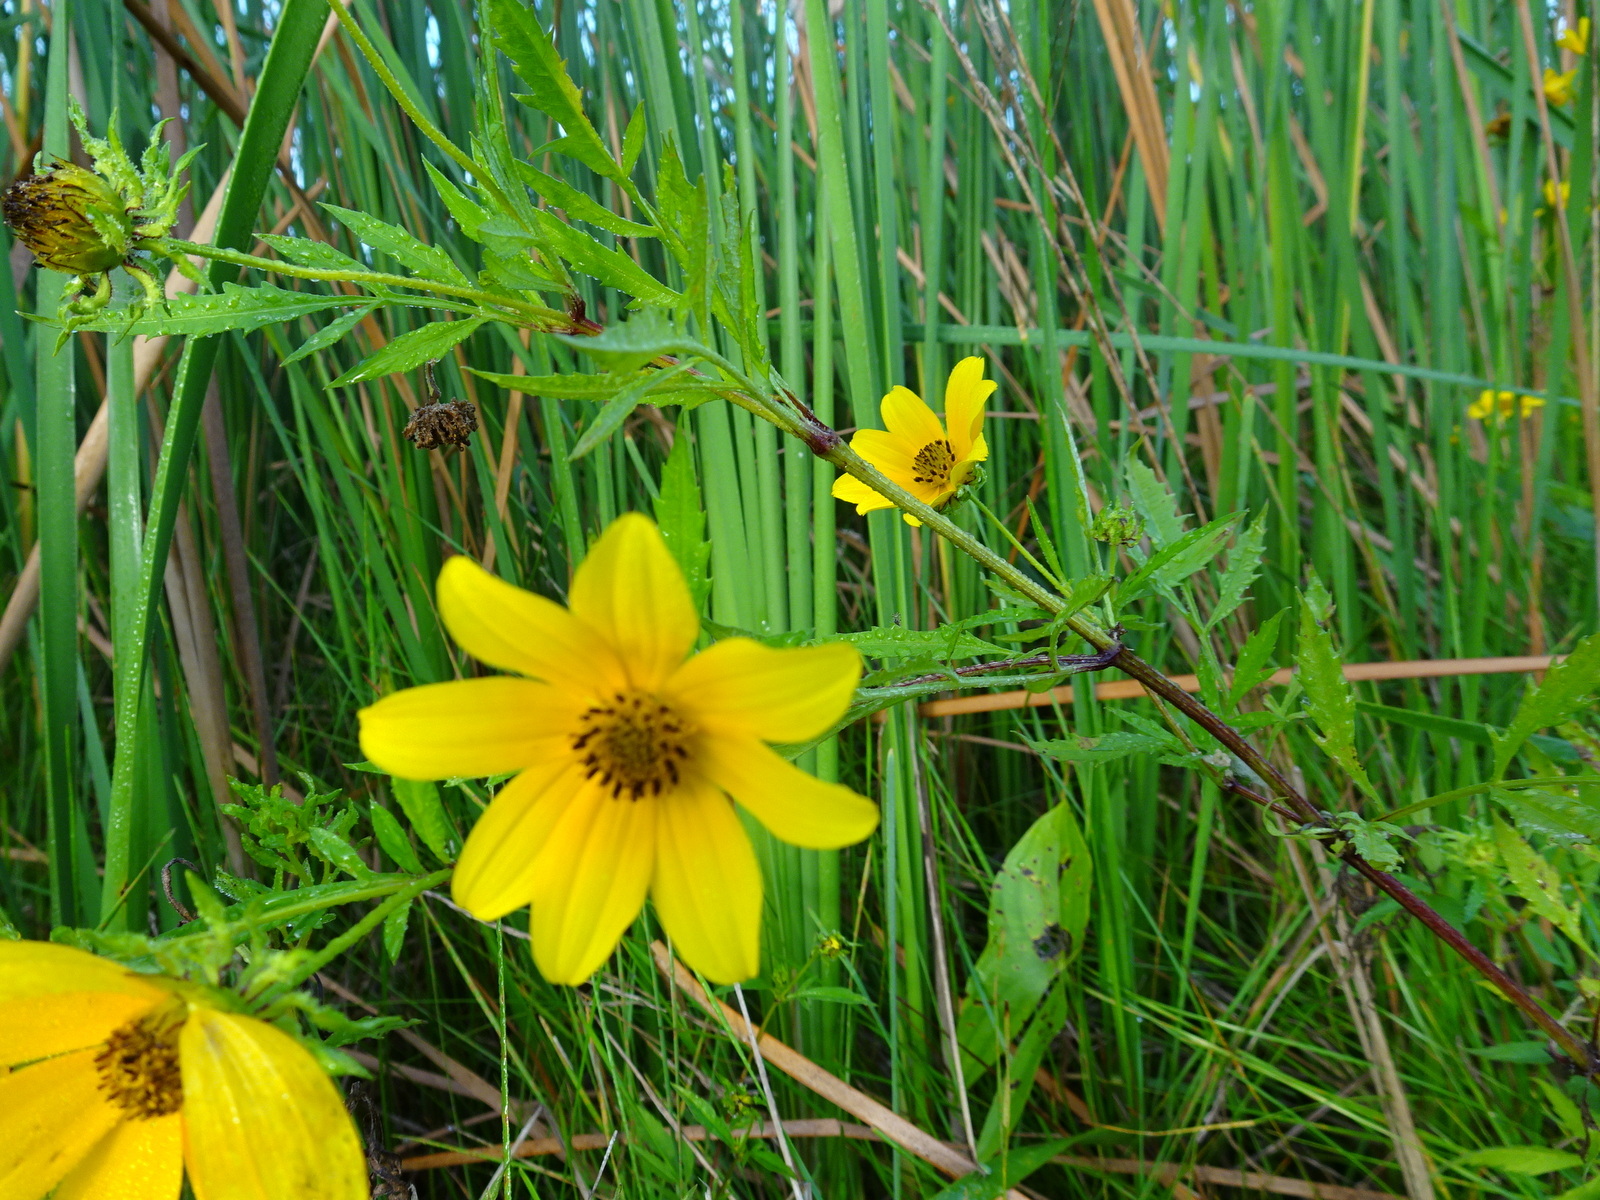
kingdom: Plantae
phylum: Tracheophyta
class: Magnoliopsida
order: Asterales
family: Asteraceae
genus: Bidens
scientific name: Bidens polylepis
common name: Awnless beggarticks
